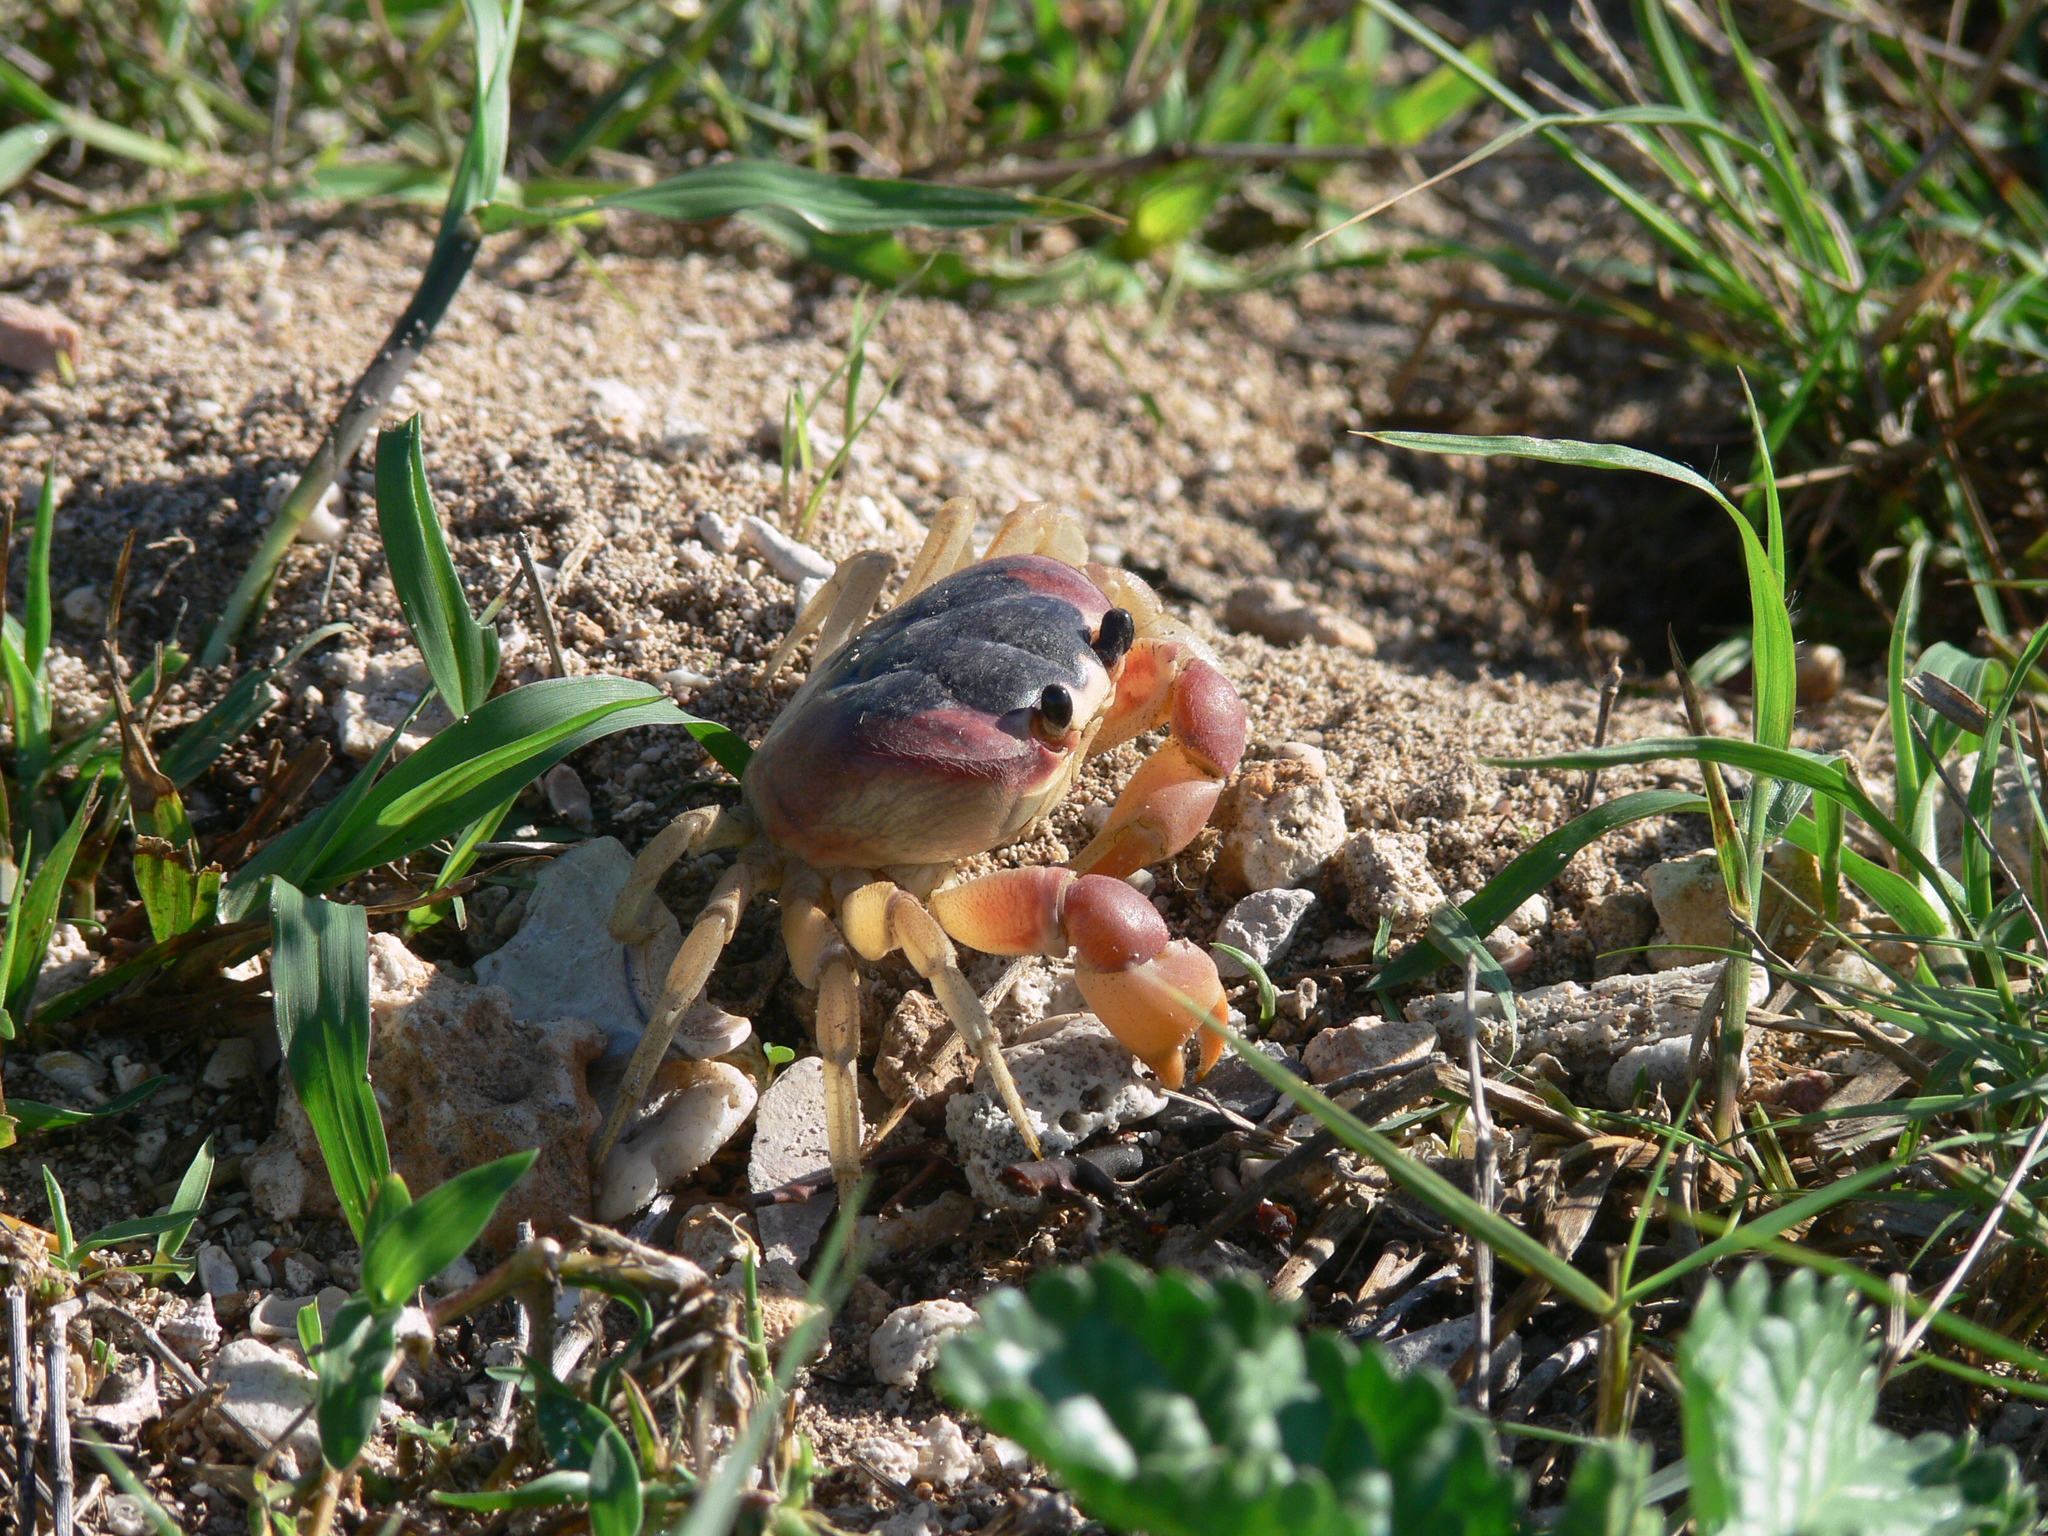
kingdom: Animalia
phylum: Arthropoda
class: Malacostraca
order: Decapoda
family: Gecarcinidae
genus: Gecarcinus
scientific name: Gecarcinus lateralis
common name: Bermuda land crab
